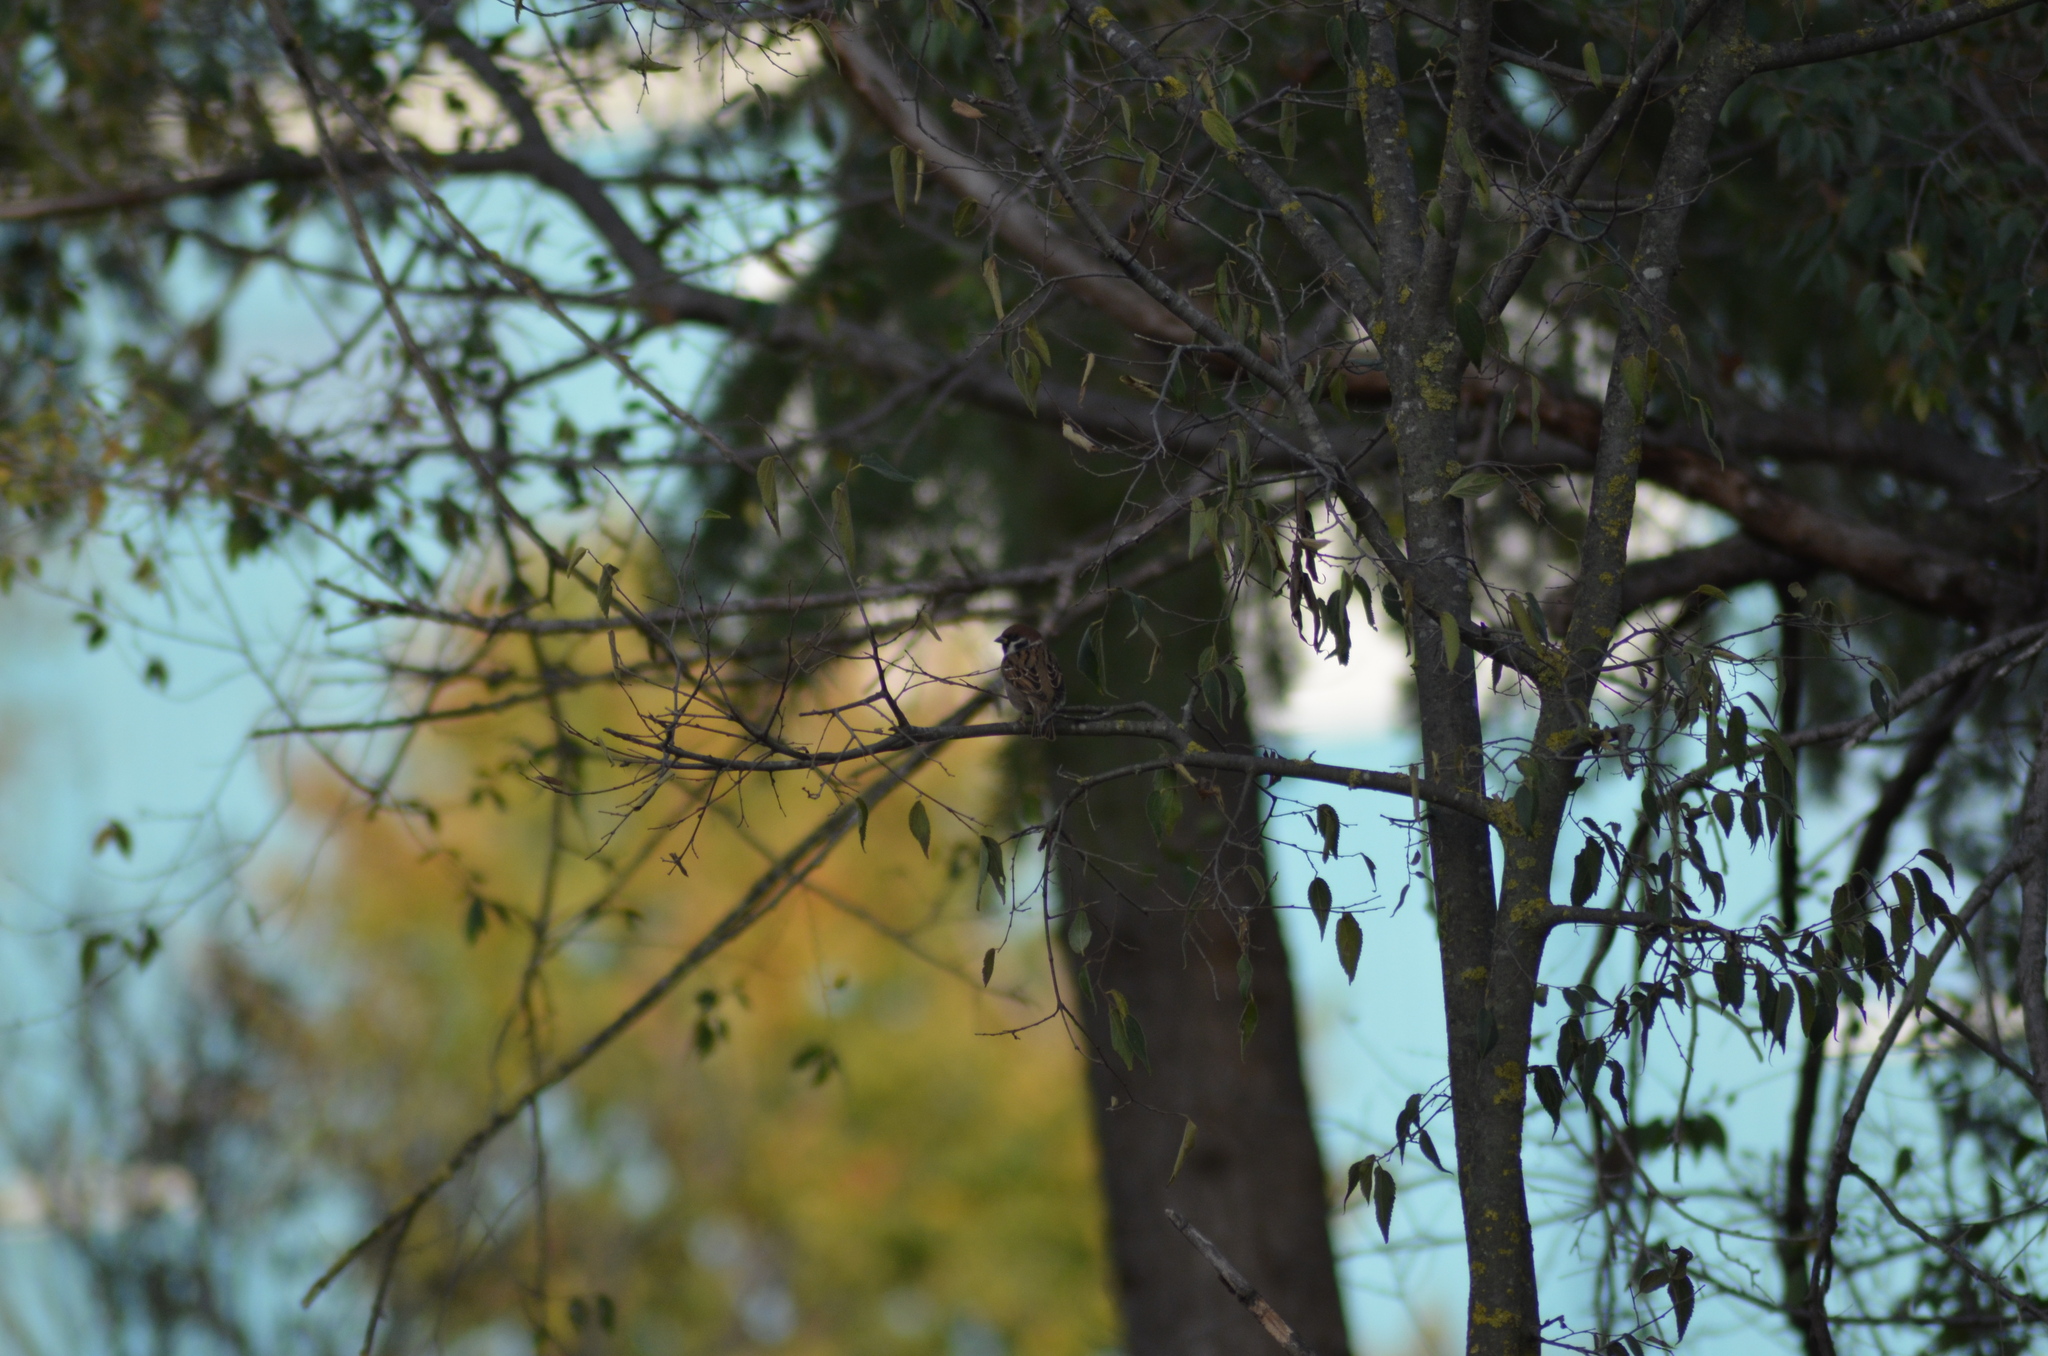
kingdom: Animalia
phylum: Chordata
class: Aves
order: Passeriformes
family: Passeridae
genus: Passer
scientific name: Passer montanus
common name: Eurasian tree sparrow
